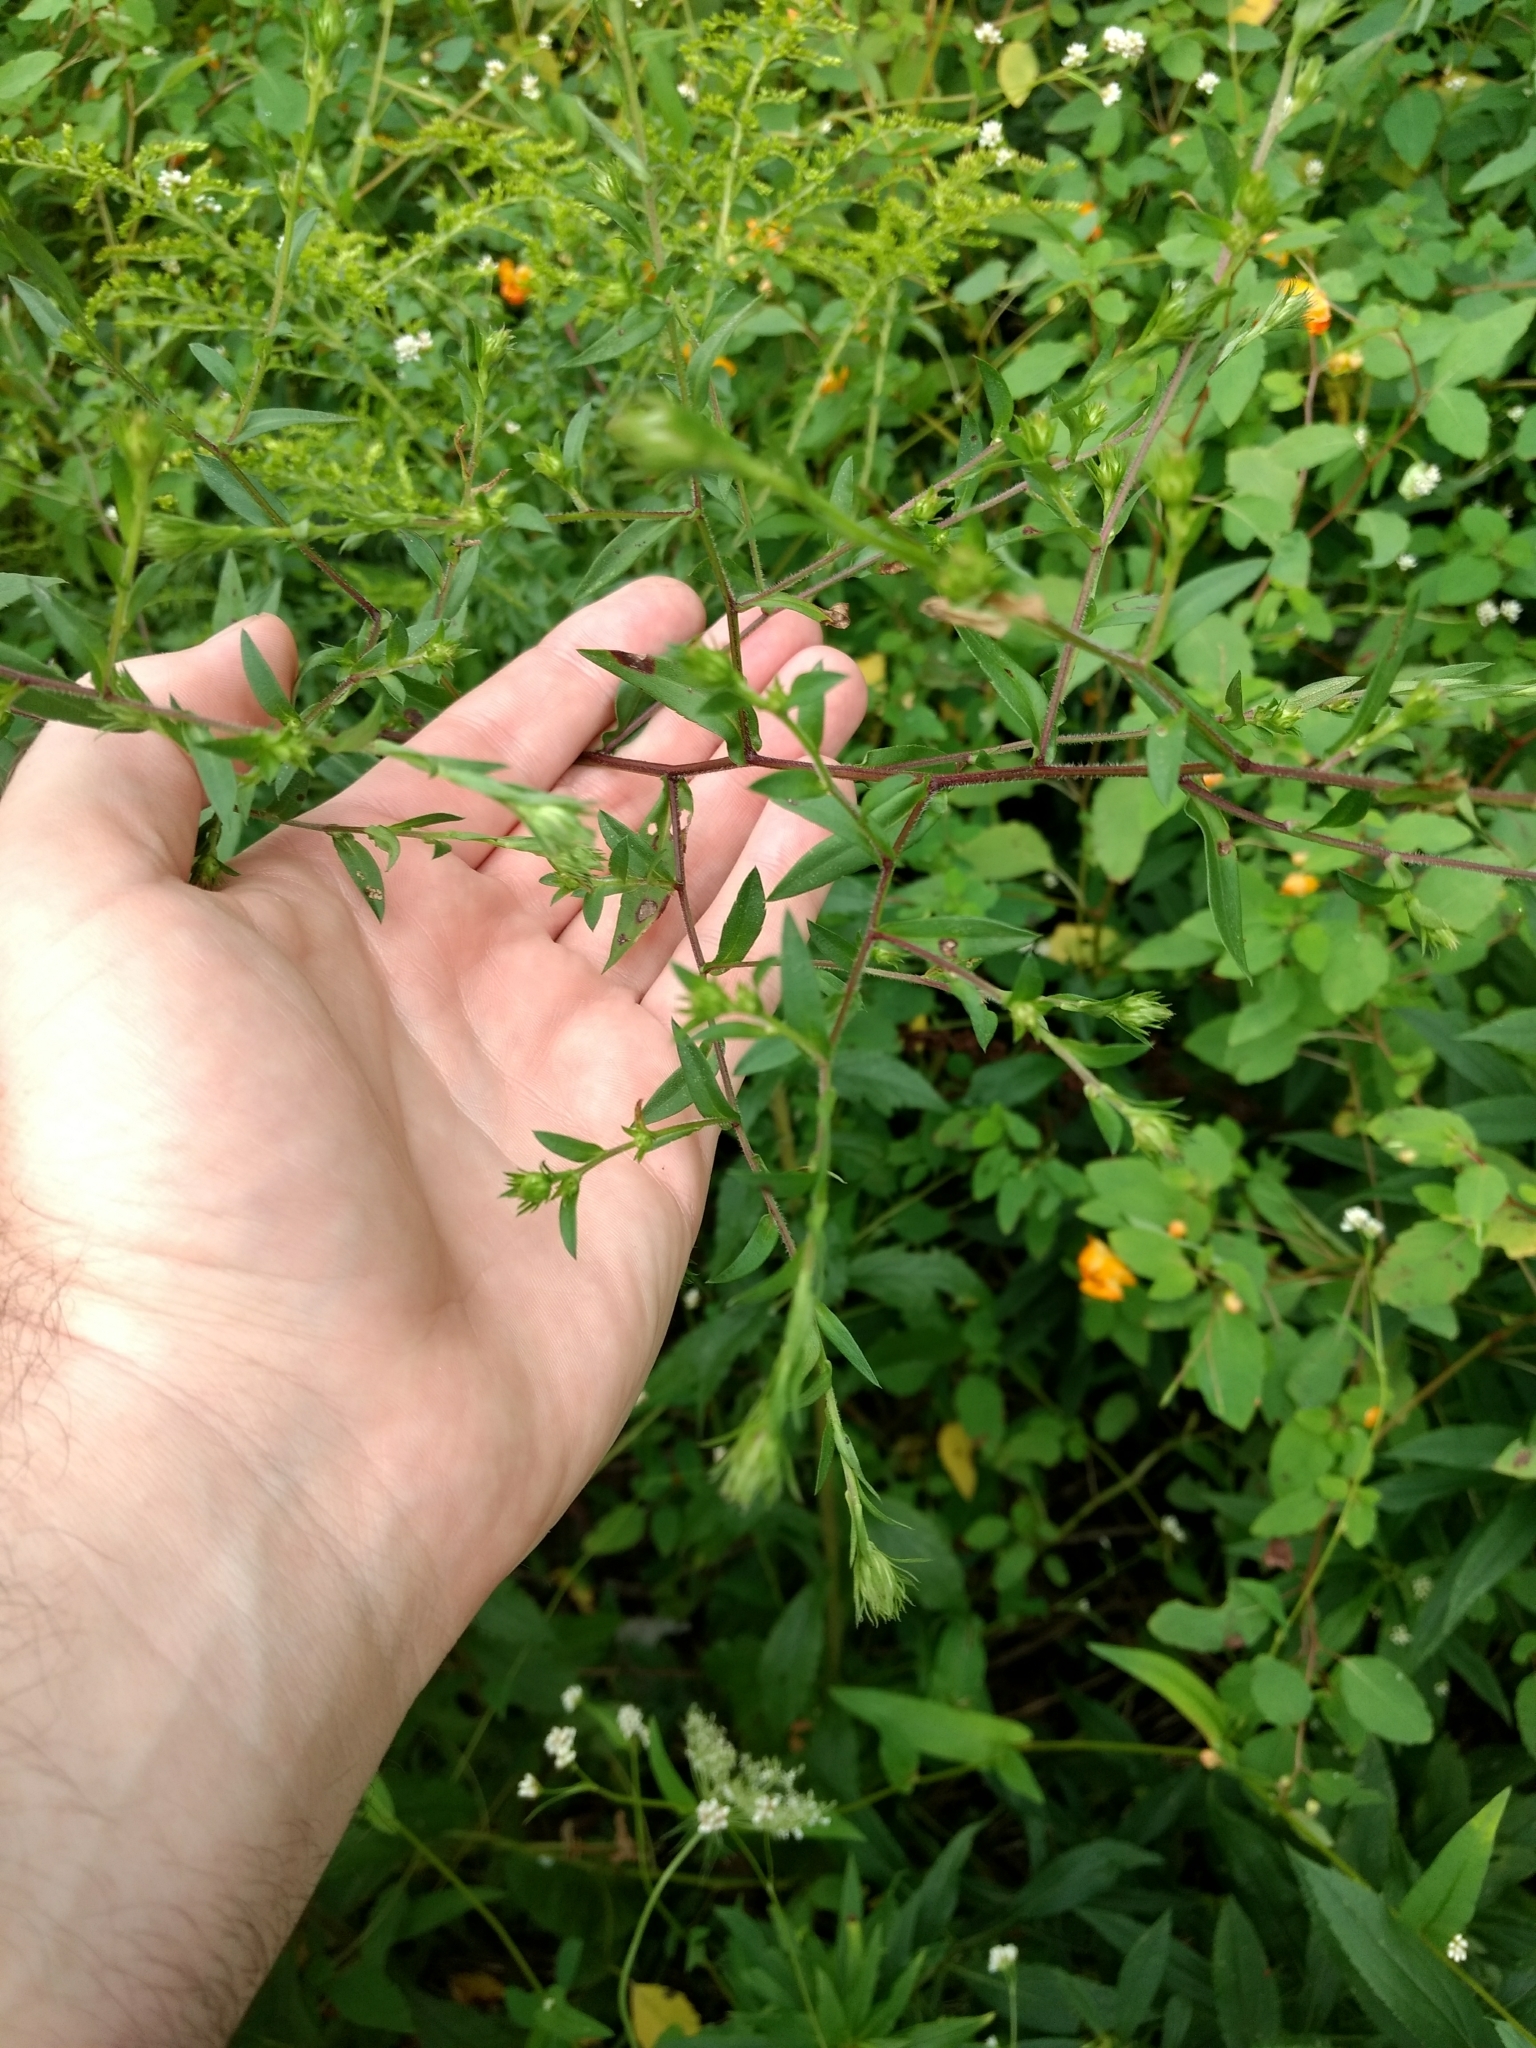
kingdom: Plantae
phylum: Tracheophyta
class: Magnoliopsida
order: Asterales
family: Asteraceae
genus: Symphyotrichum
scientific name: Symphyotrichum puniceum
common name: Bog aster
